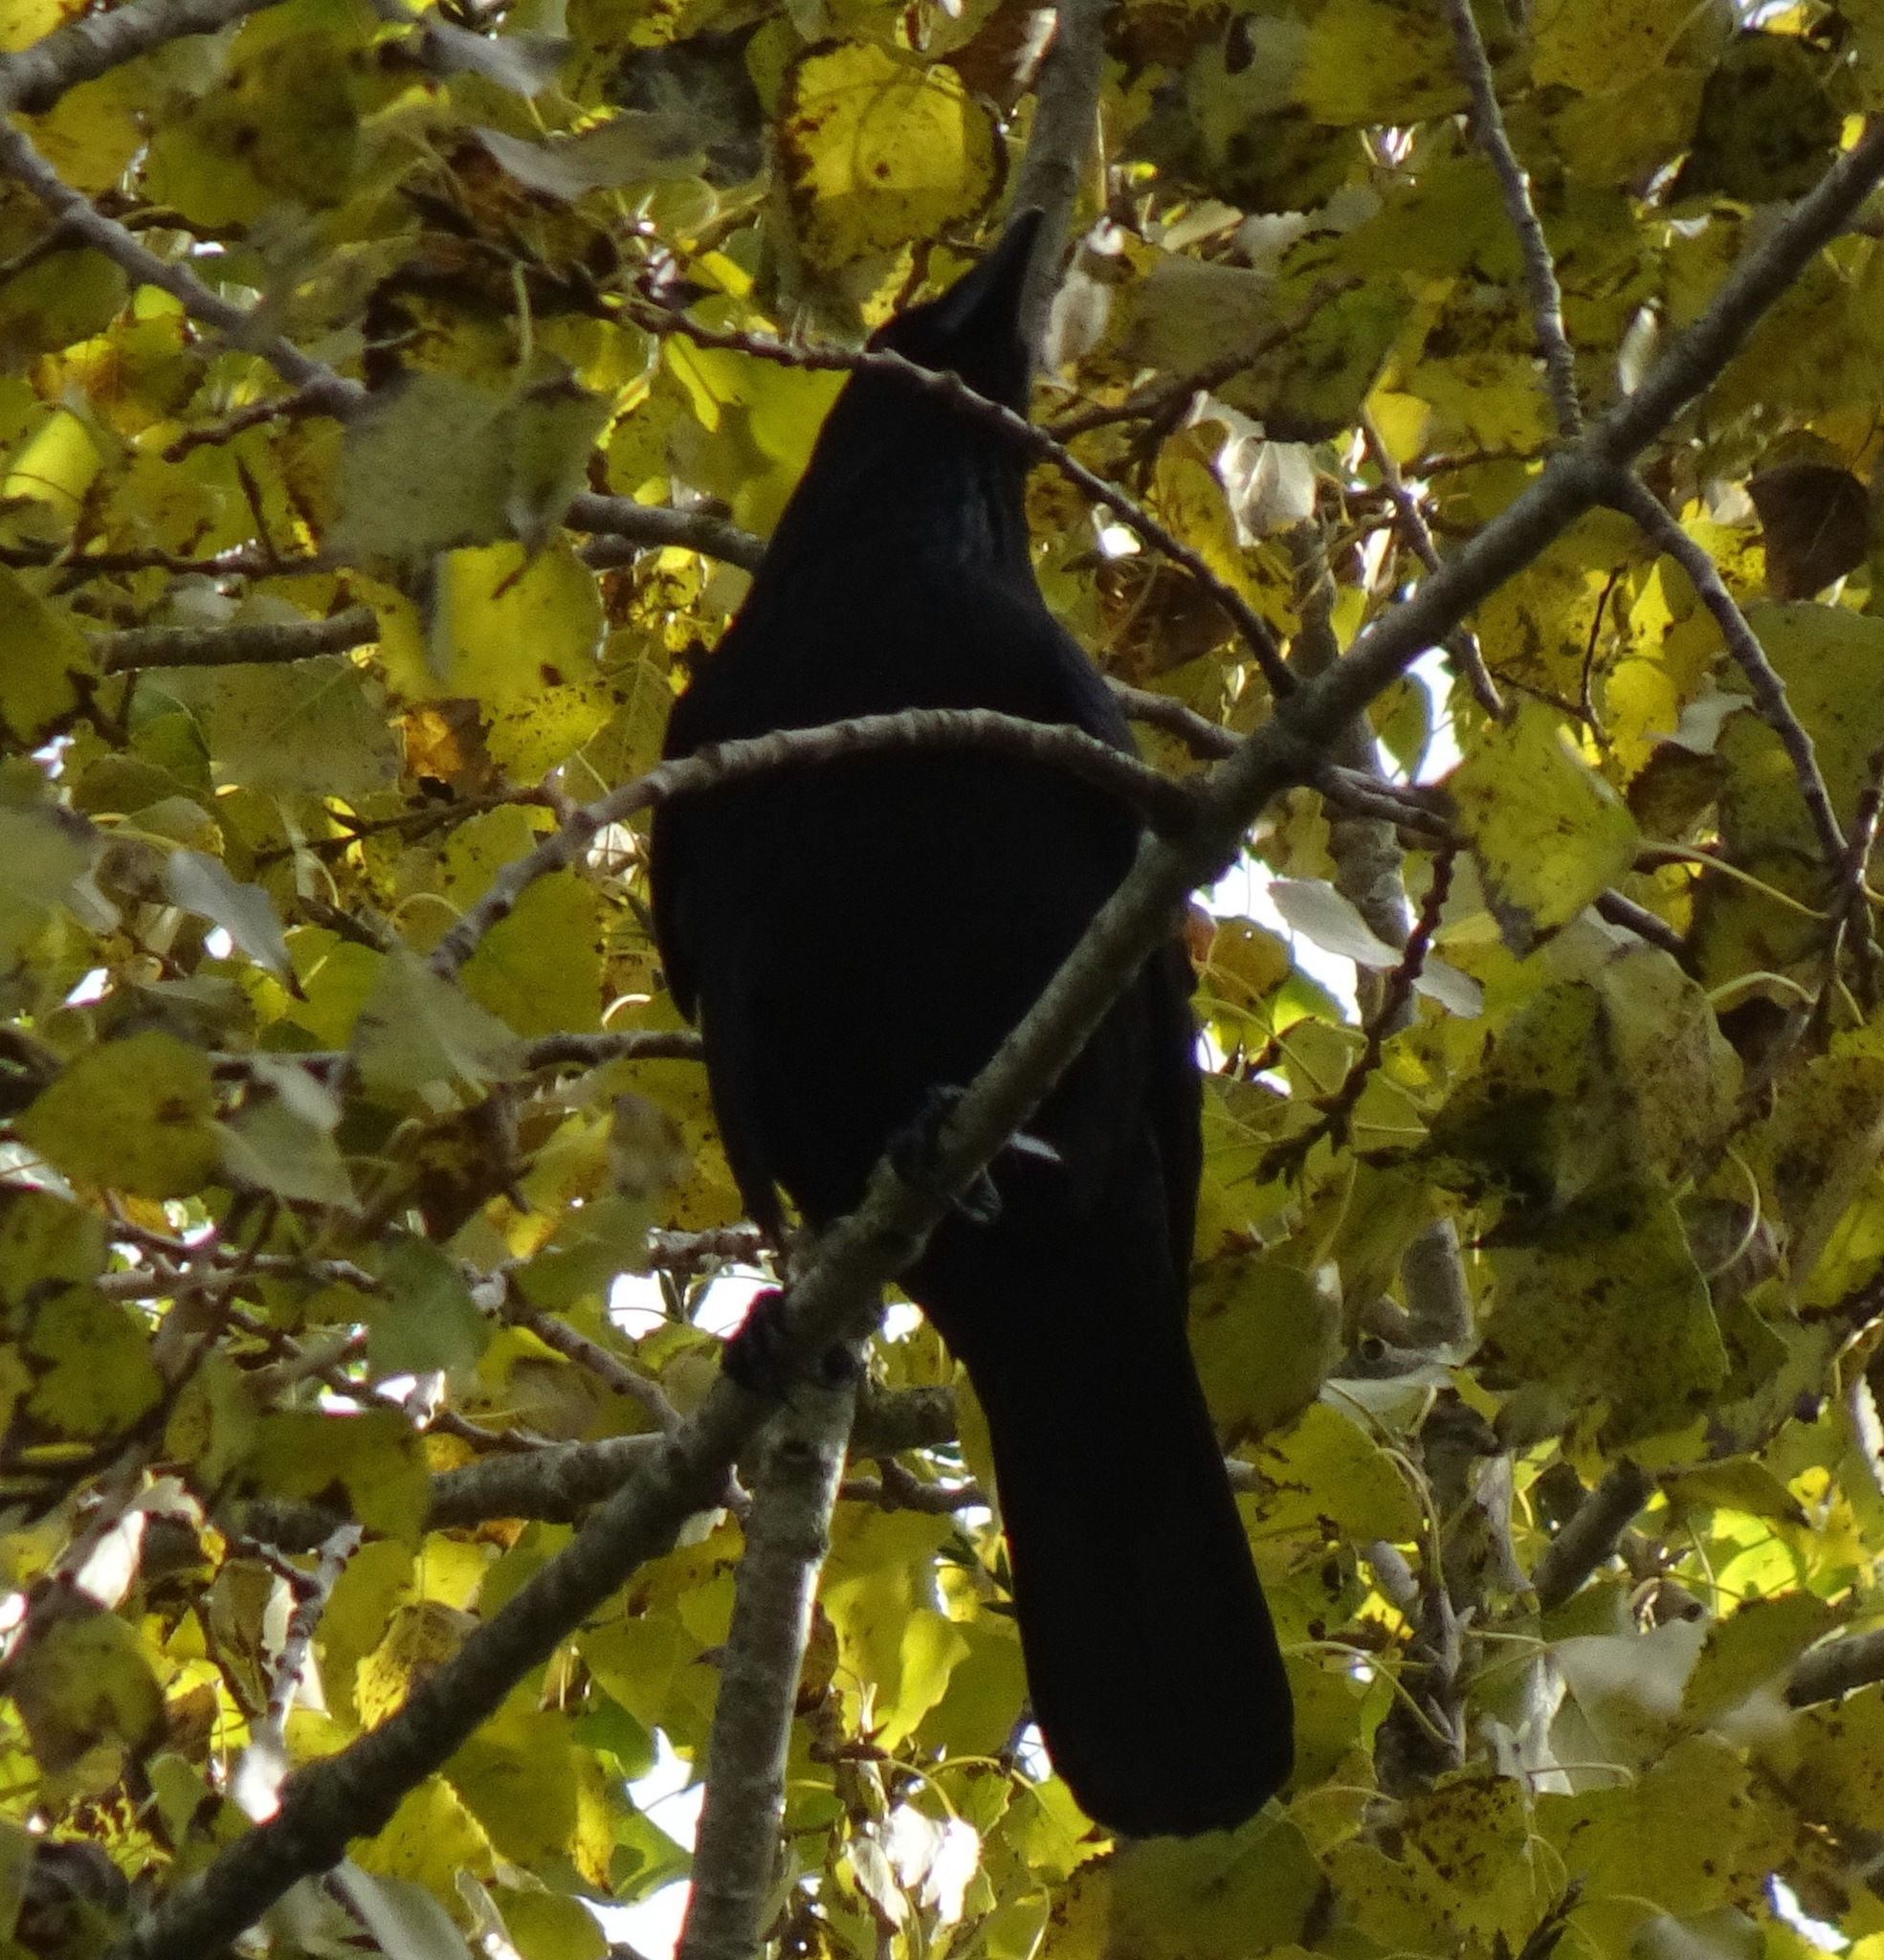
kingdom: Animalia
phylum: Chordata
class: Aves
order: Passeriformes
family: Corvidae
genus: Corvus
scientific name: Corvus corone
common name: Carrion crow
